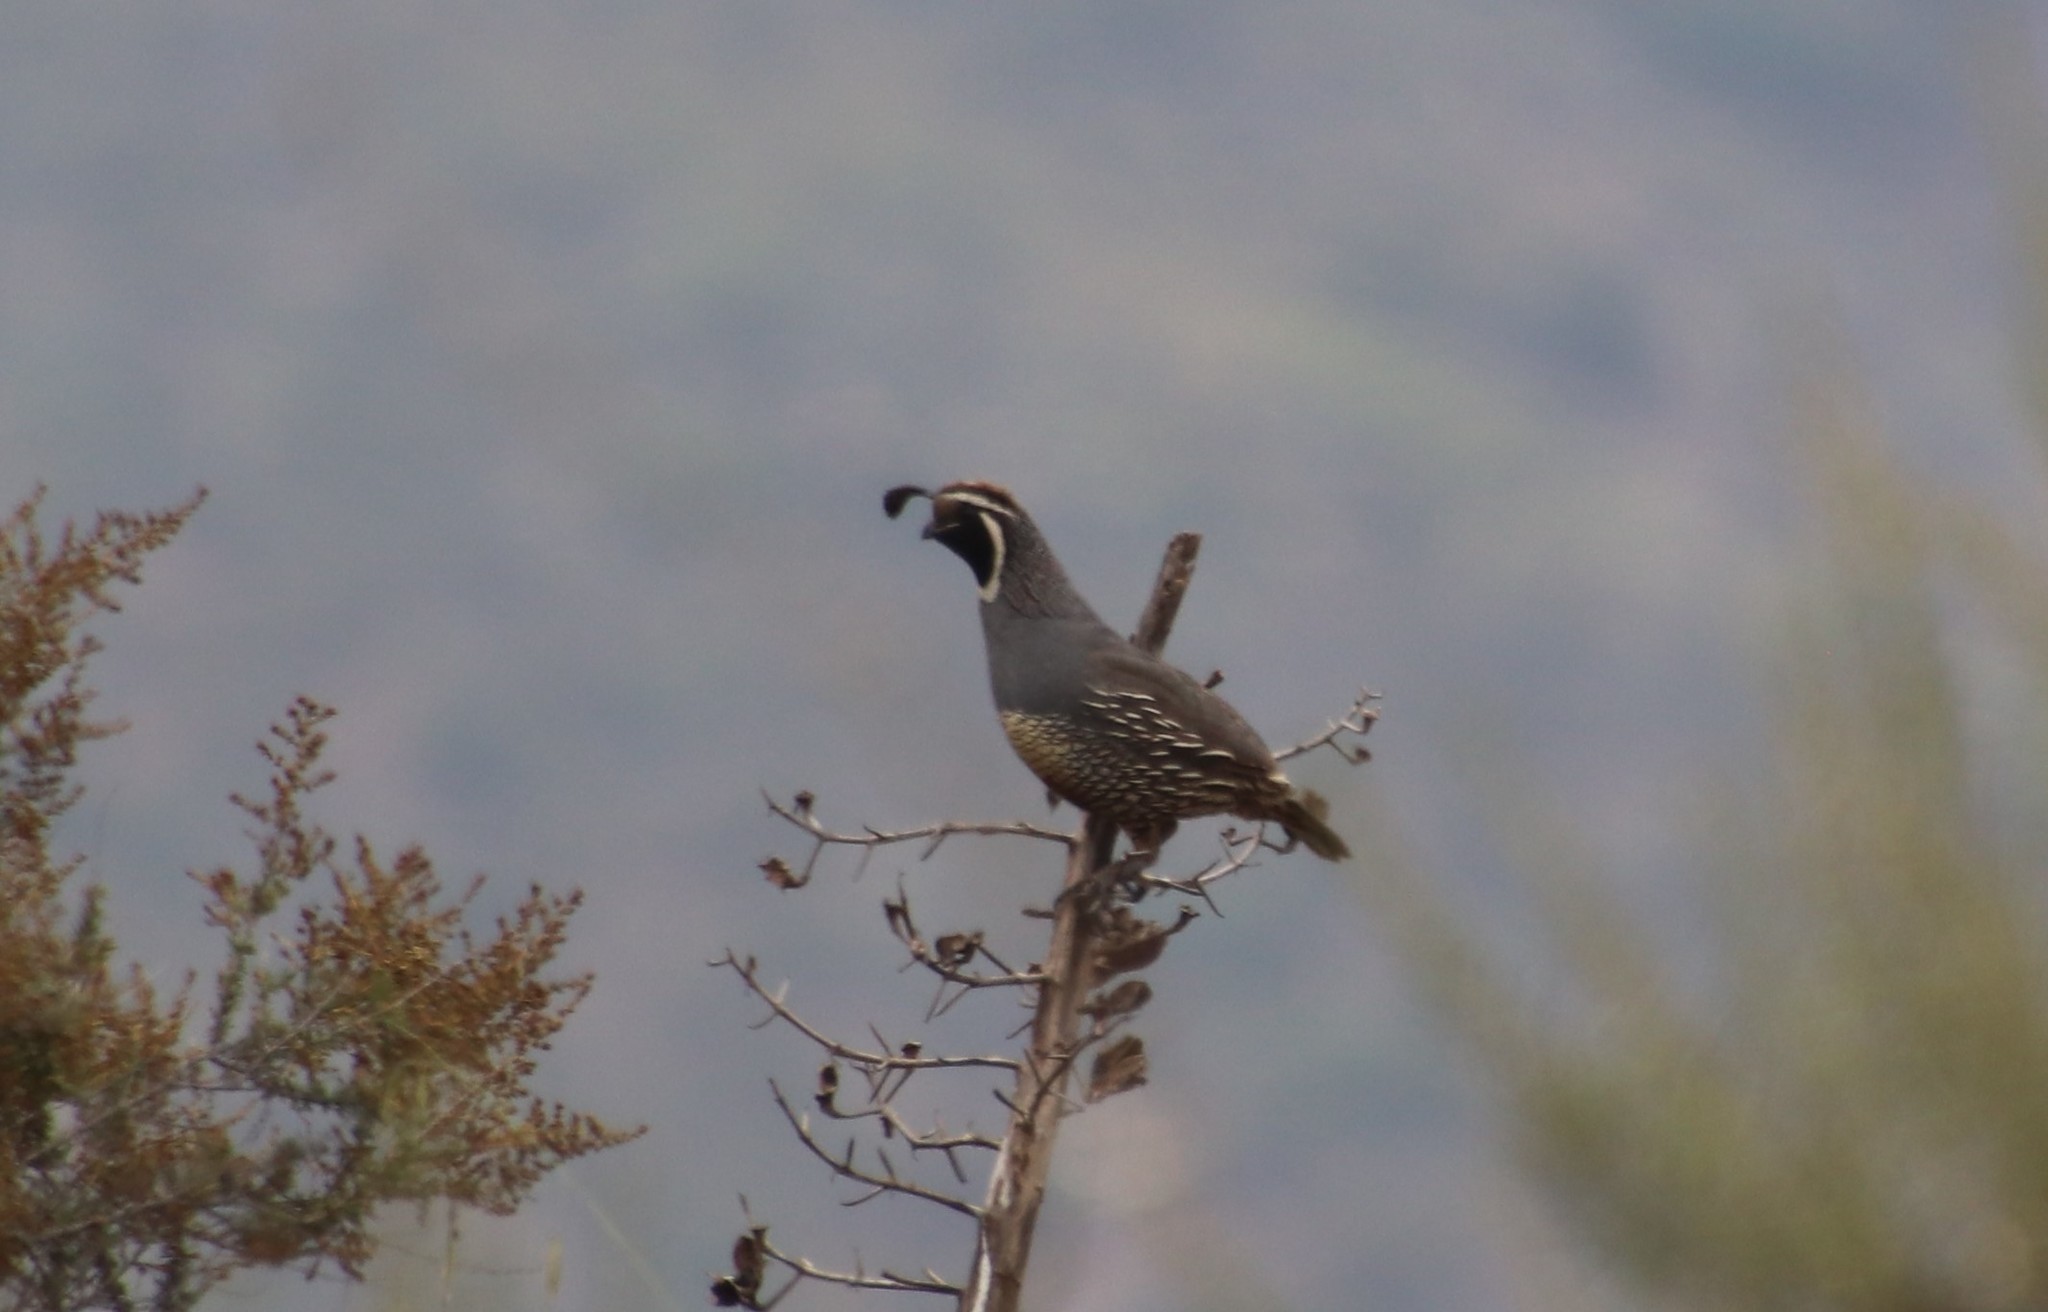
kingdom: Animalia
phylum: Chordata
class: Aves
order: Galliformes
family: Odontophoridae
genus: Callipepla
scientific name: Callipepla californica
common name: California quail
